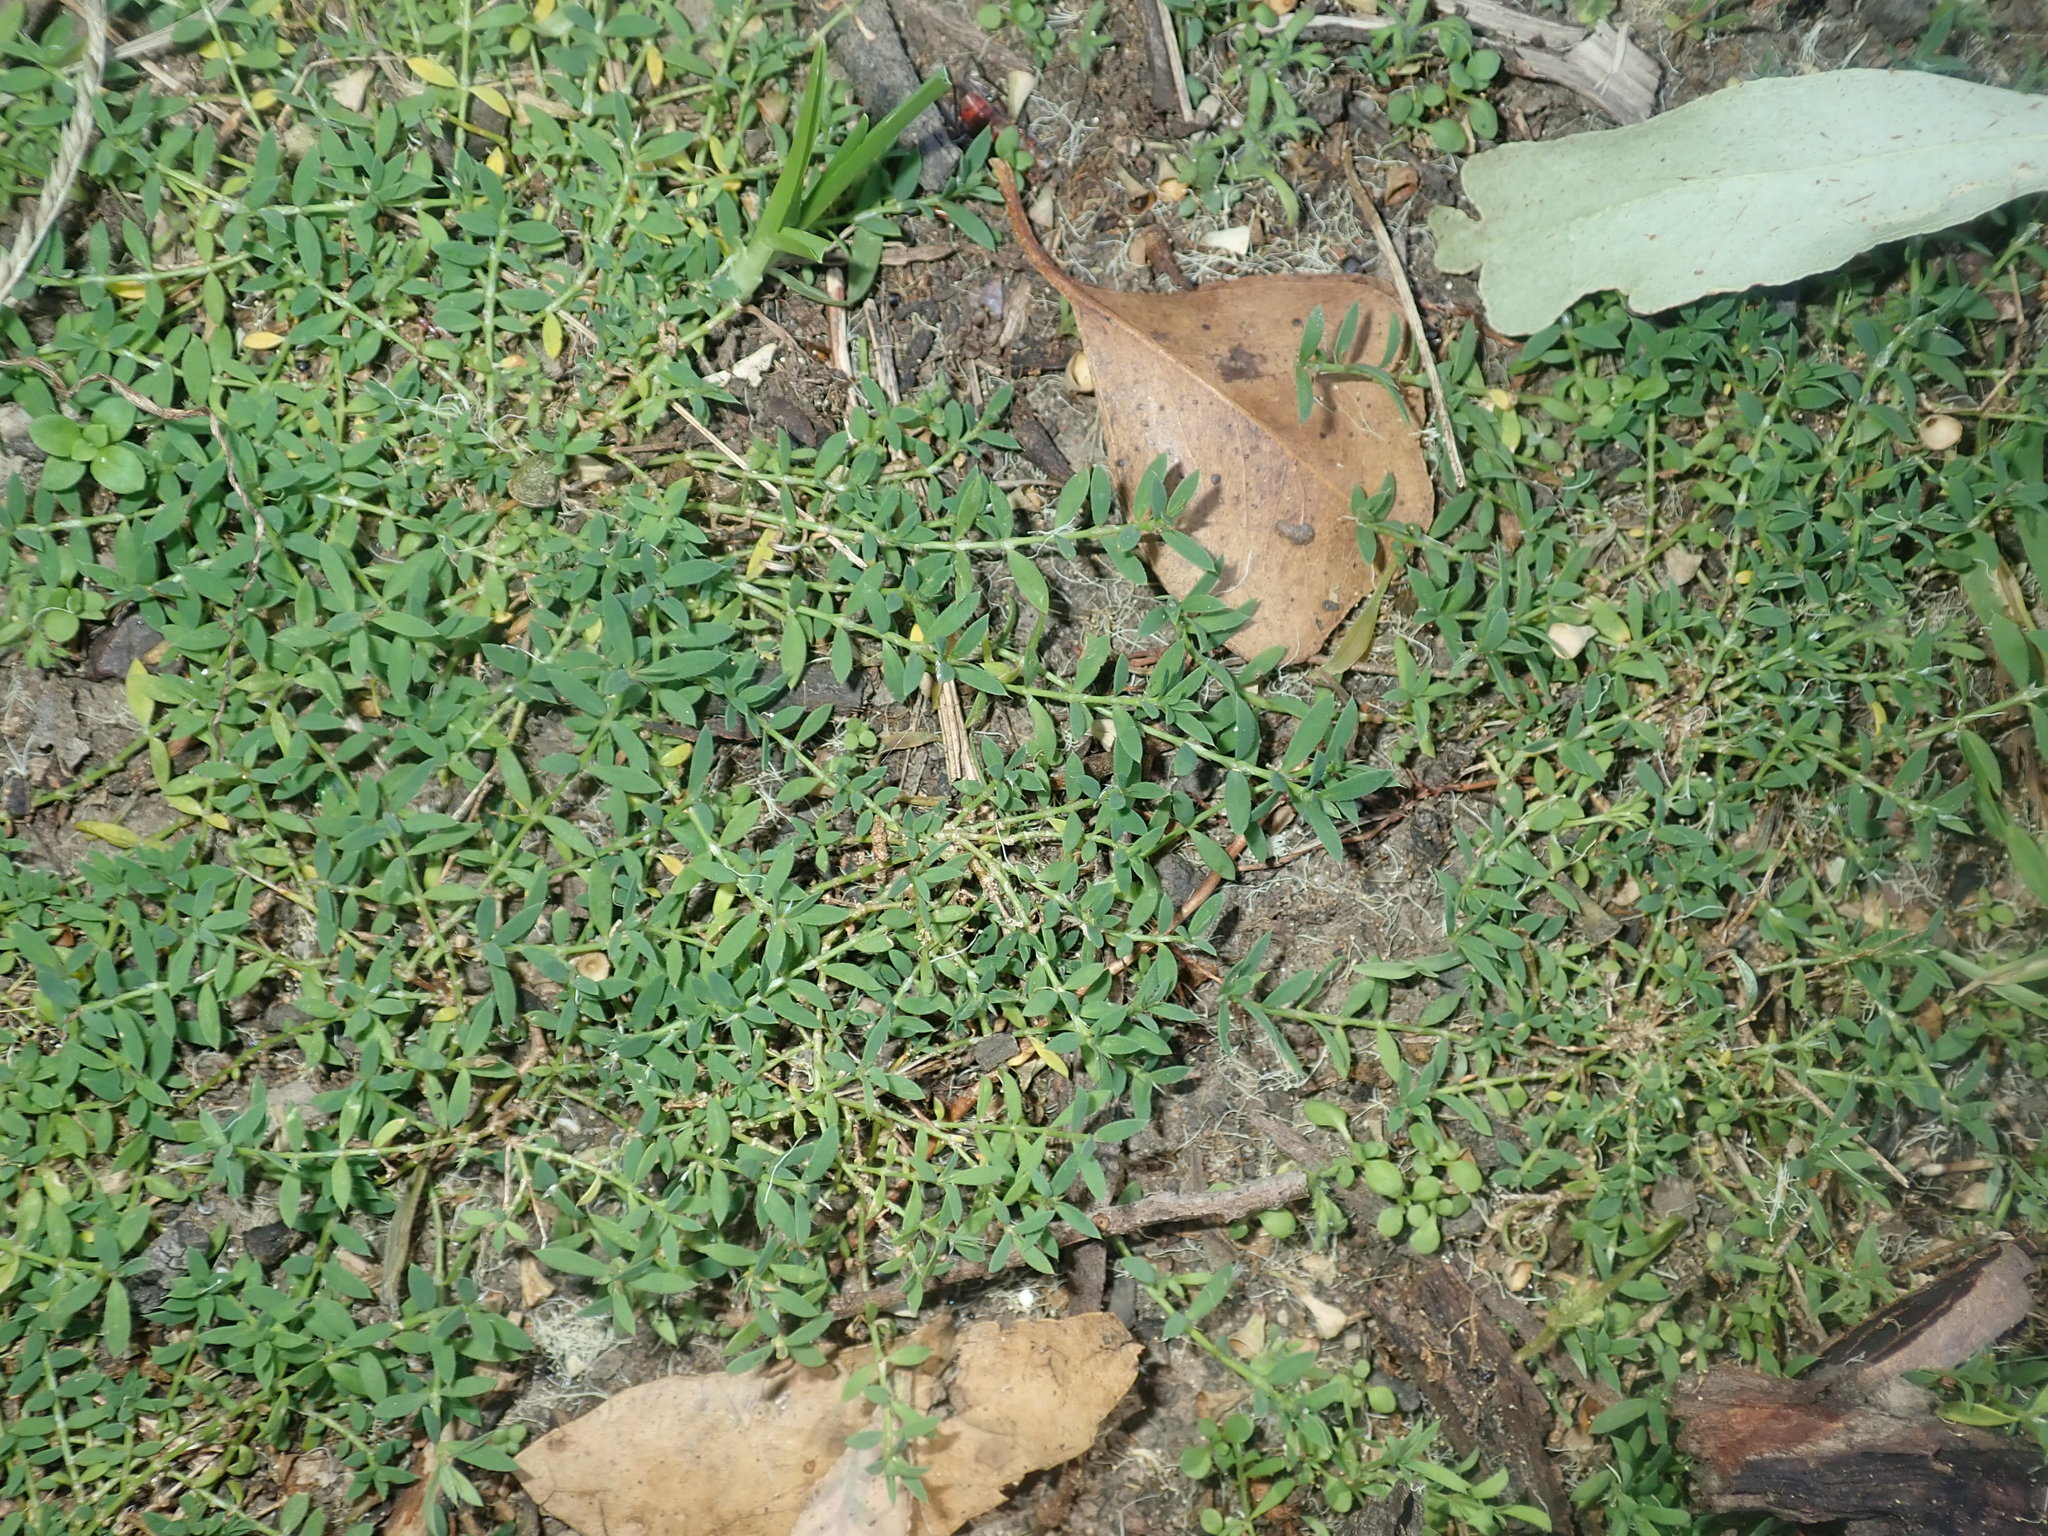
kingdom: Plantae
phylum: Tracheophyta
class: Magnoliopsida
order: Caryophyllales
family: Caryophyllaceae
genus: Paronychia
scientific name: Paronychia brasiliana
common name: Brazilian whitlow
